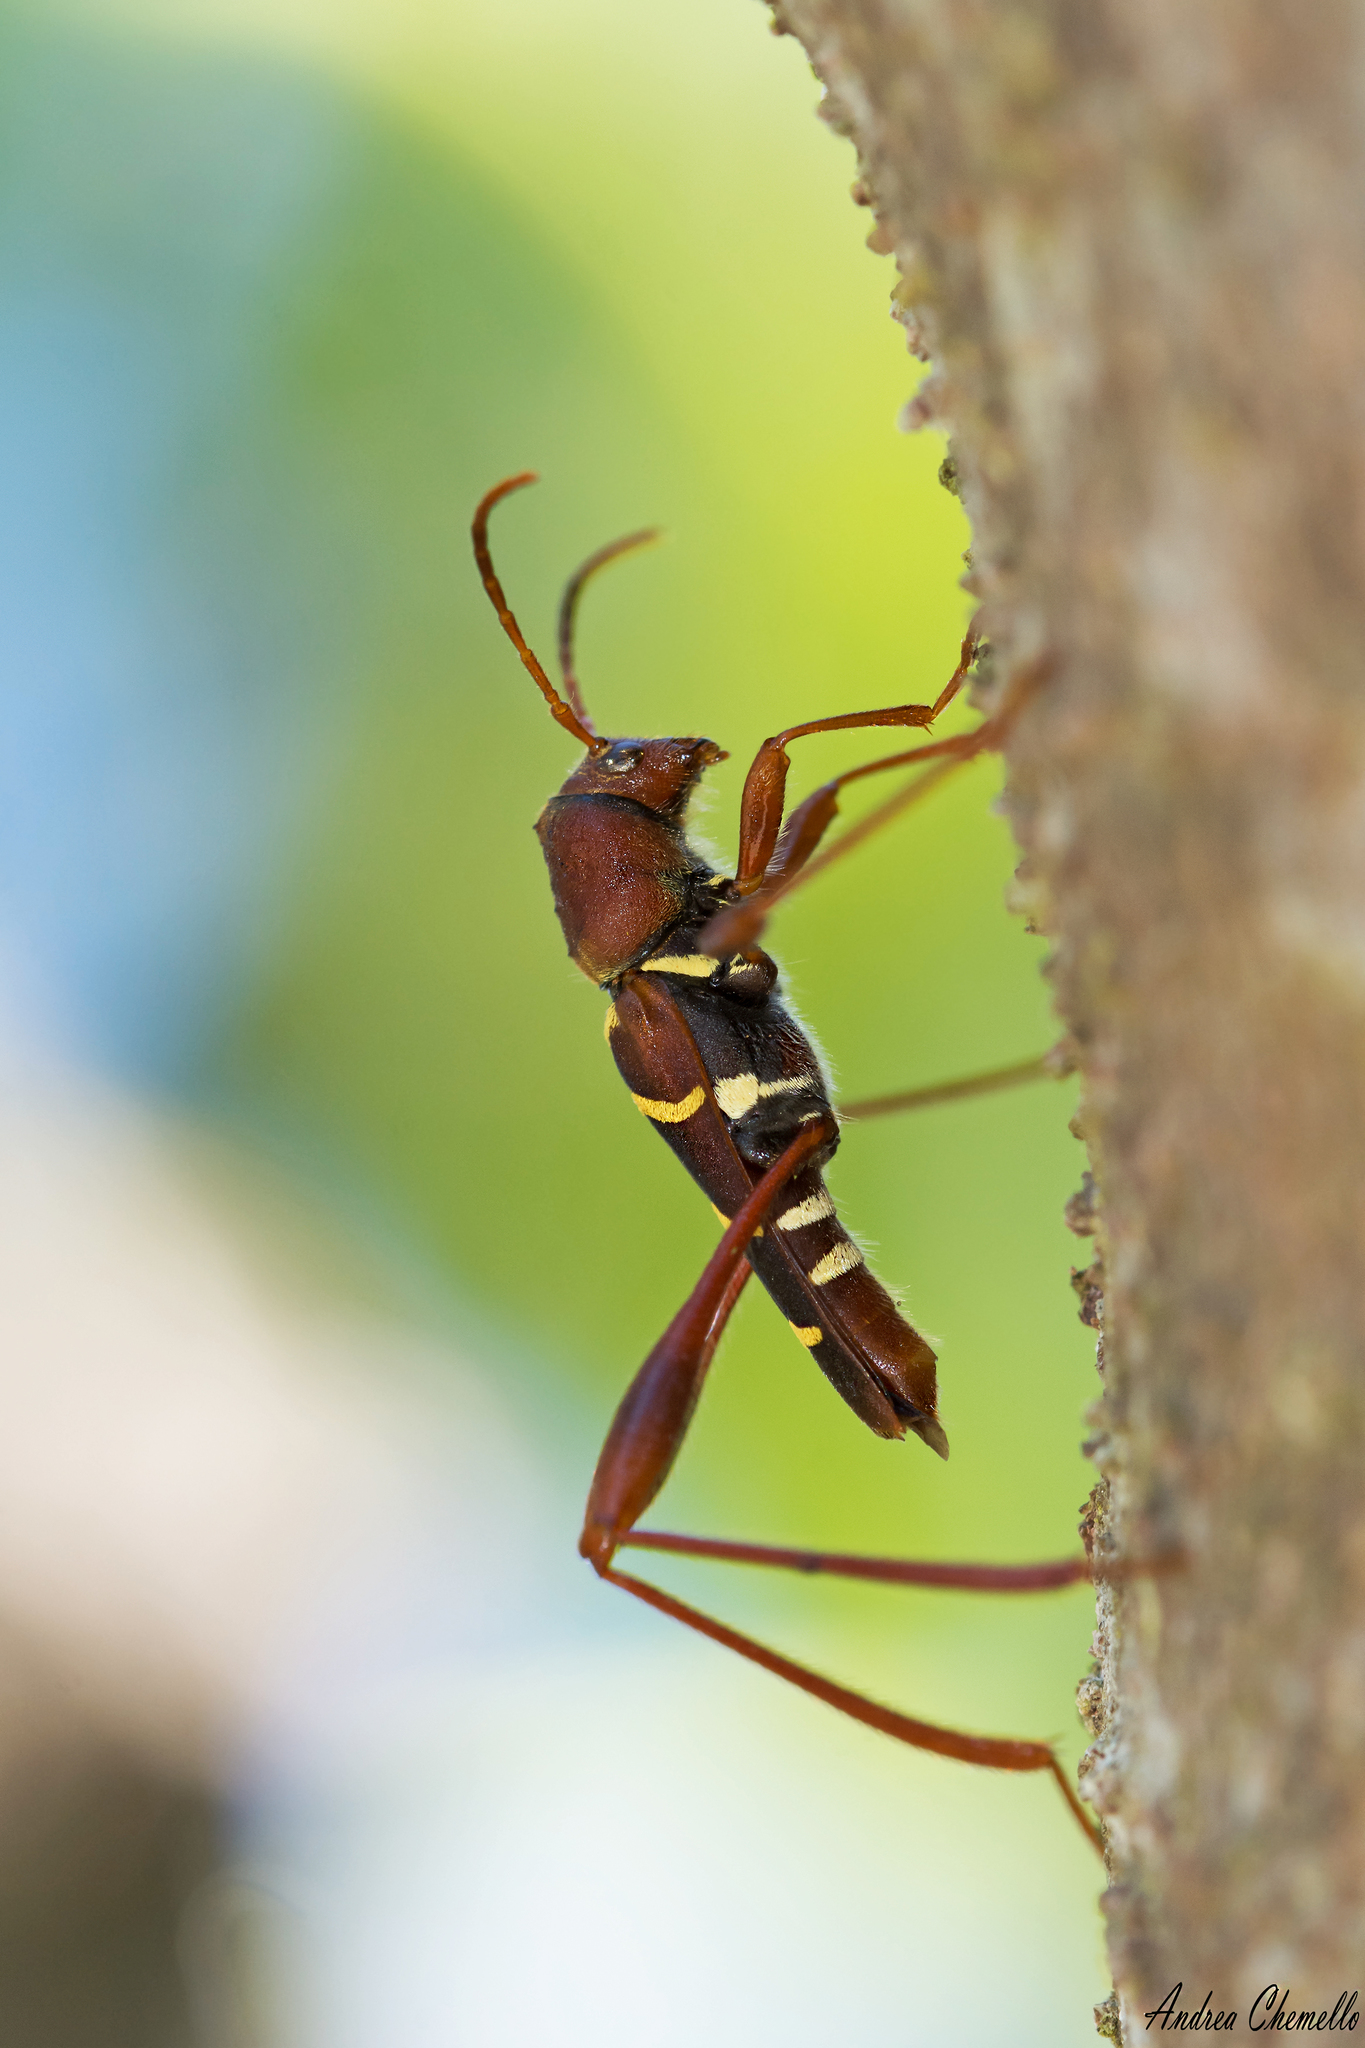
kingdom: Animalia
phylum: Arthropoda
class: Insecta
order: Coleoptera
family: Cerambycidae
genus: Neoclytus
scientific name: Neoclytus acuminatus
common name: Read-headed ash borer
